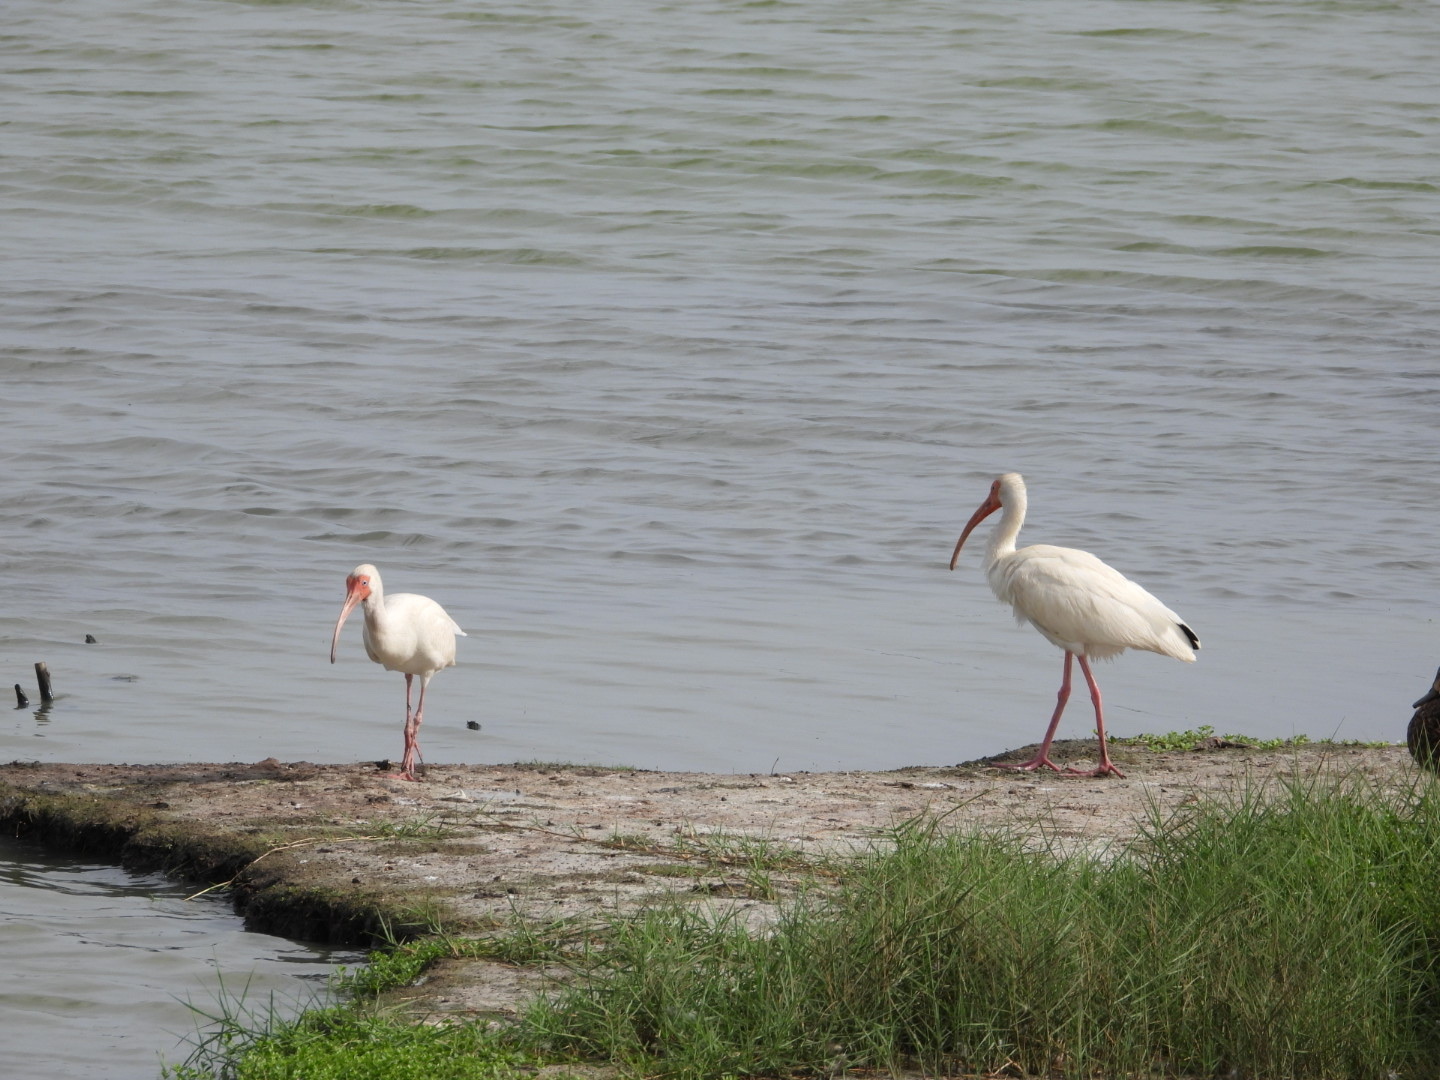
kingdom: Animalia
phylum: Chordata
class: Aves
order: Pelecaniformes
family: Threskiornithidae
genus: Eudocimus
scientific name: Eudocimus albus
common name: White ibis
